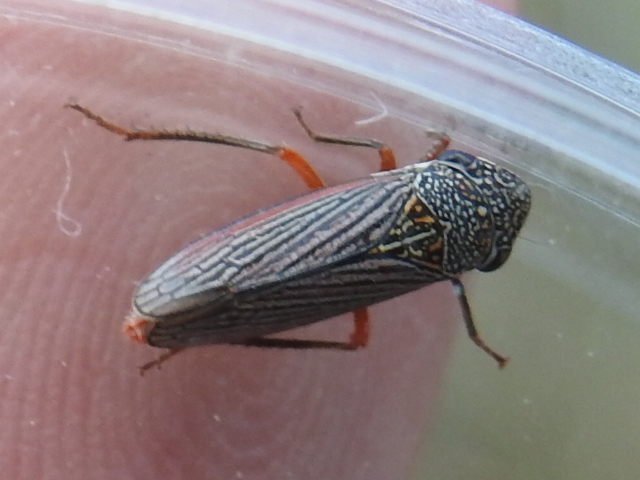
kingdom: Animalia
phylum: Arthropoda
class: Insecta
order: Hemiptera
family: Cicadellidae
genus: Cuerna
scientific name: Cuerna costalis
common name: Lateral-lined sharpshooter
